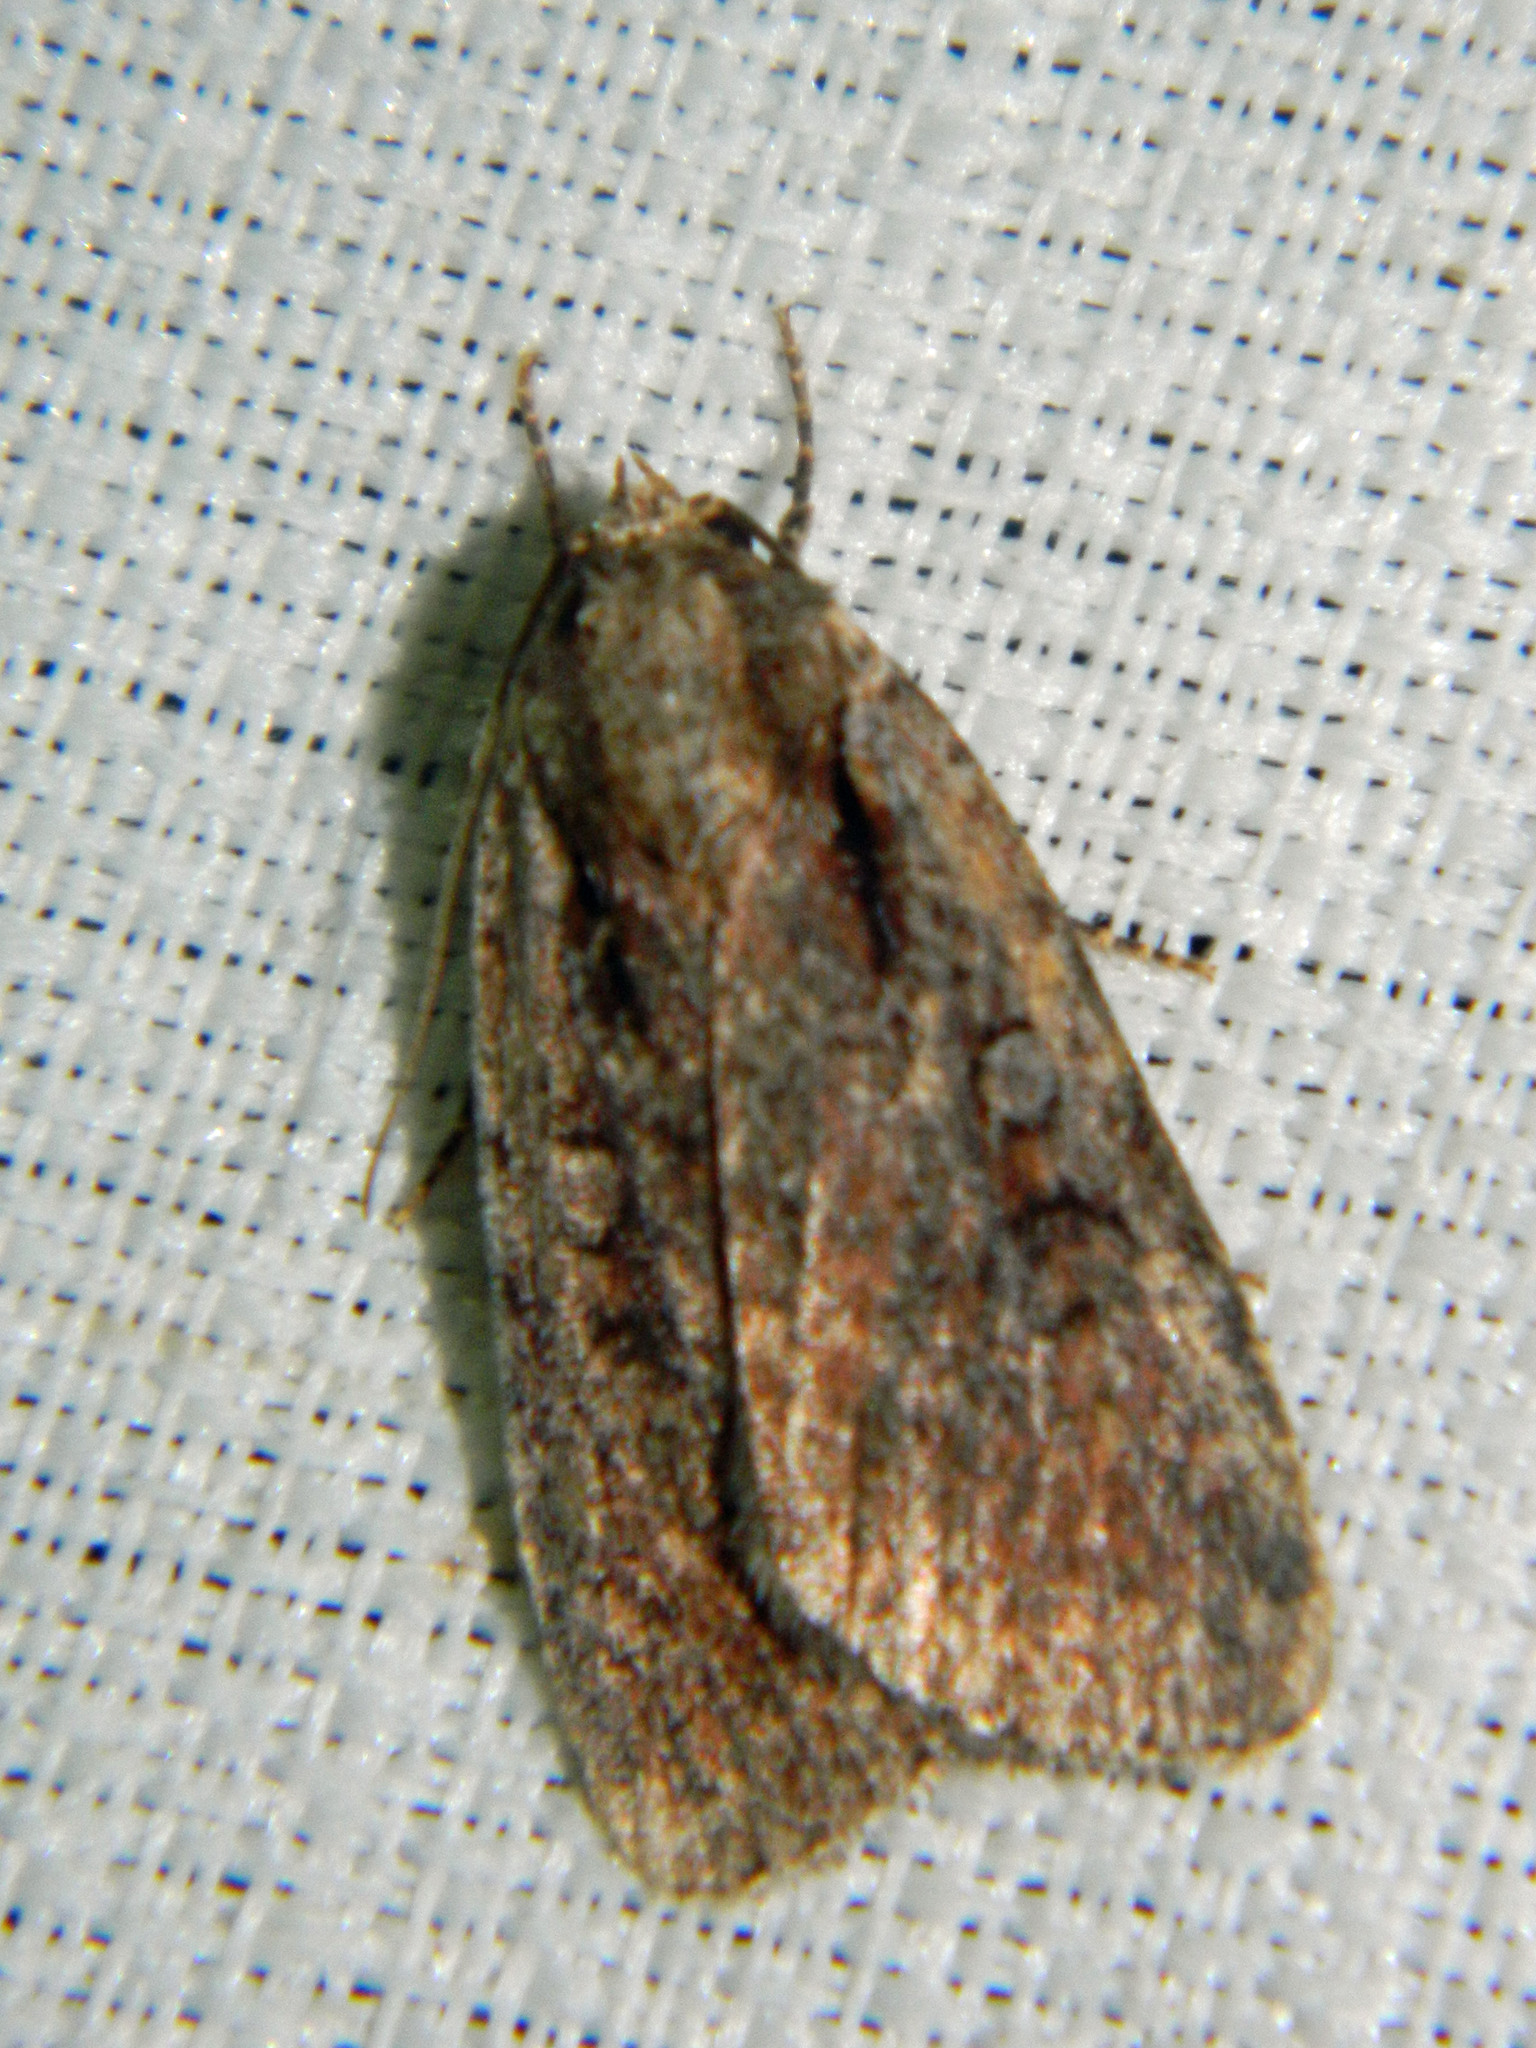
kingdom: Animalia
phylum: Arthropoda
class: Insecta
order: Lepidoptera
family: Noctuidae
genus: Eueretagrotis
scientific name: Eueretagrotis attentus
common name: Attentive dart
